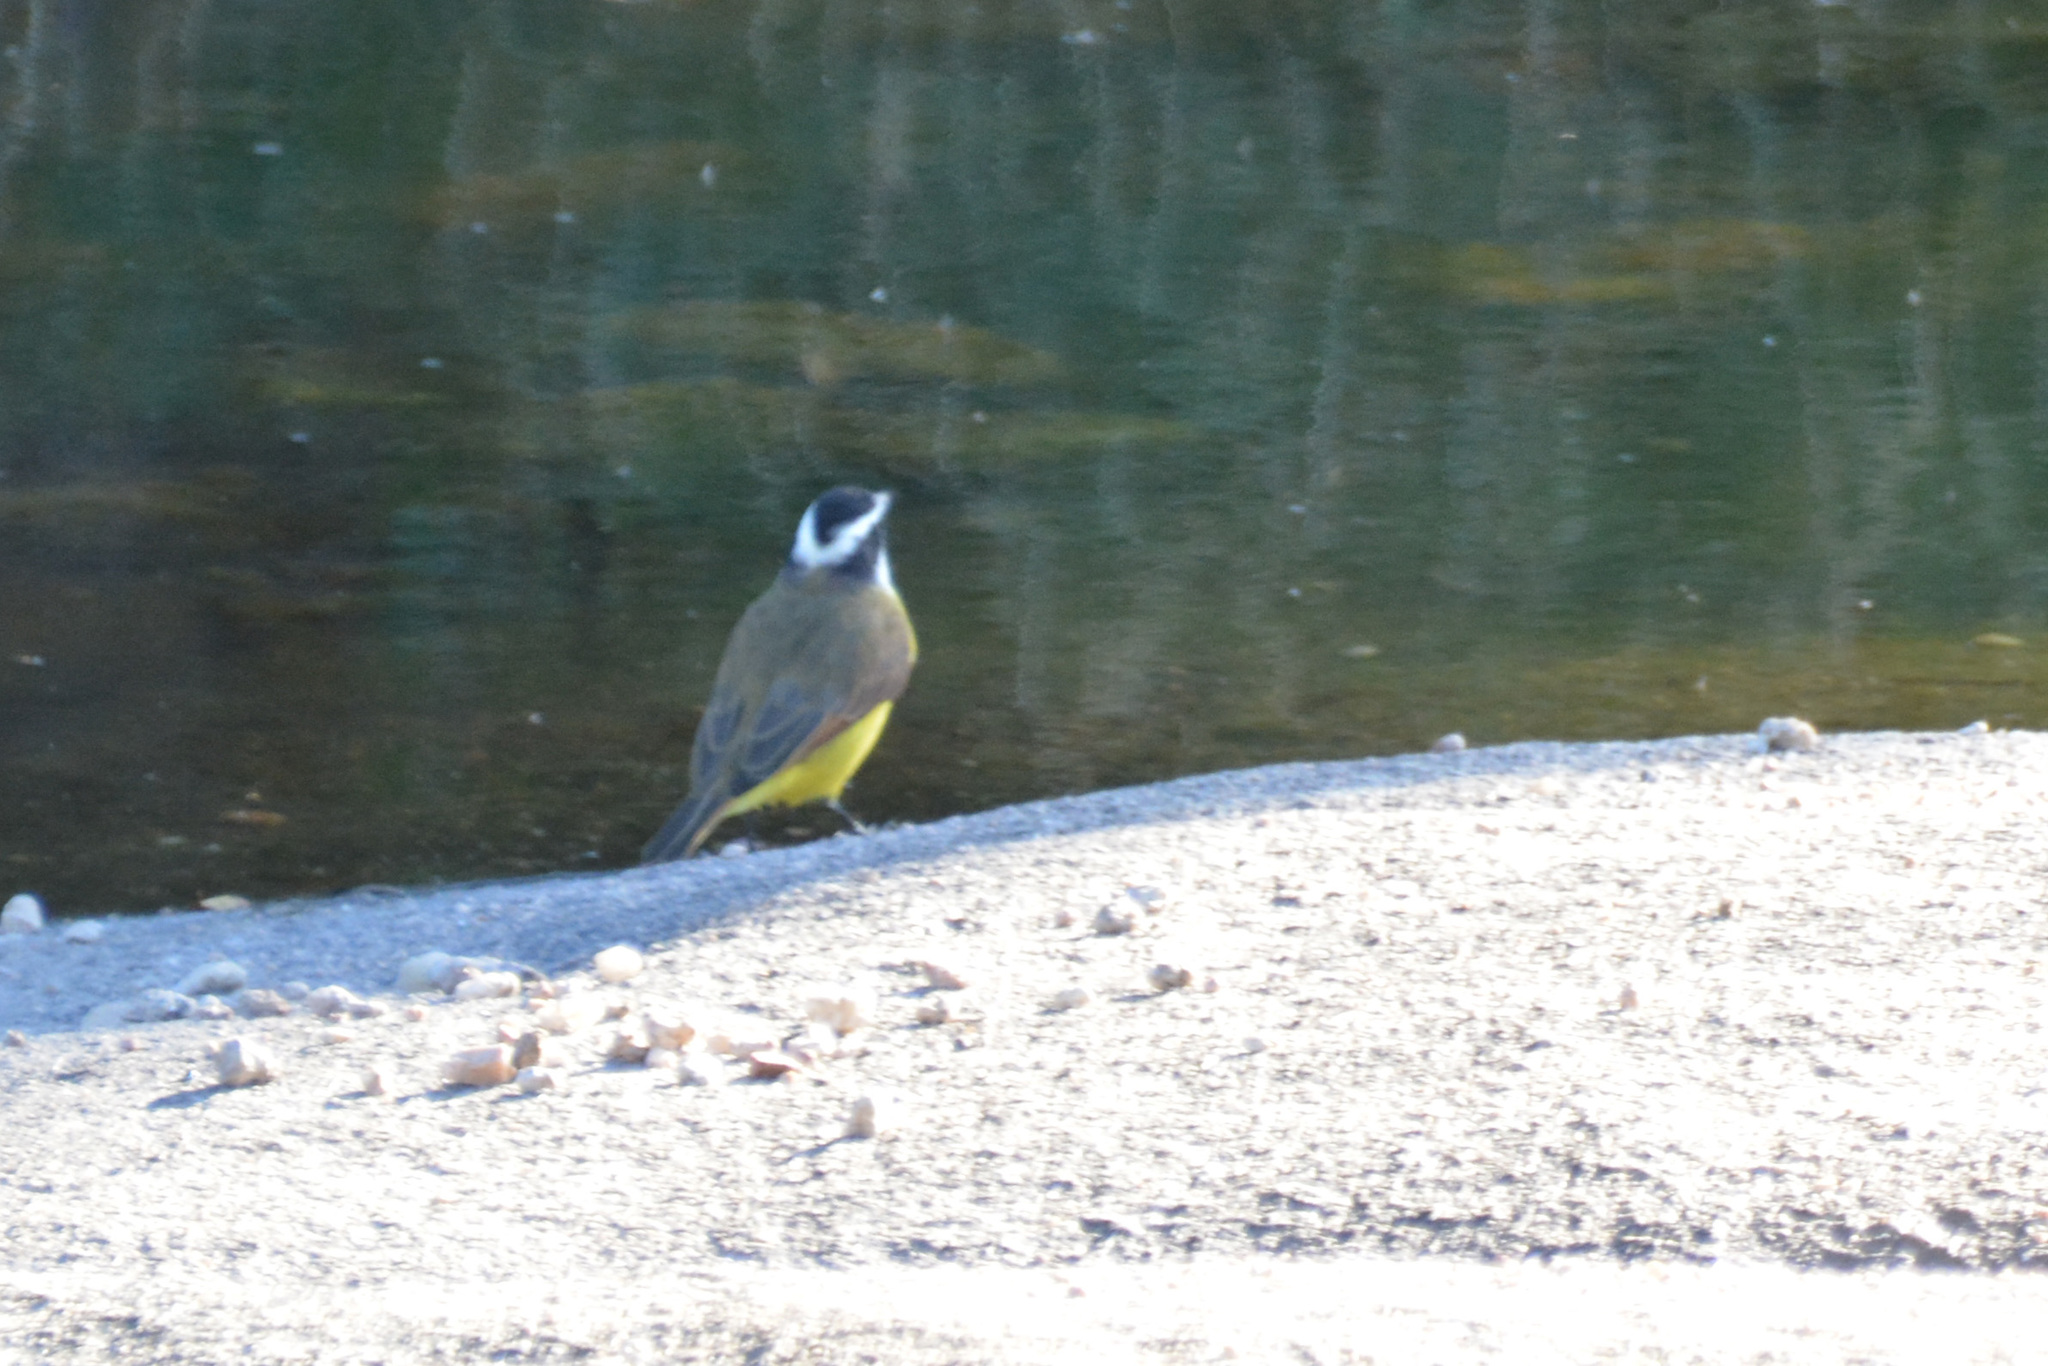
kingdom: Animalia
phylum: Chordata
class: Aves
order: Passeriformes
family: Tyrannidae
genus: Pitangus
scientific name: Pitangus sulphuratus
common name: Great kiskadee
